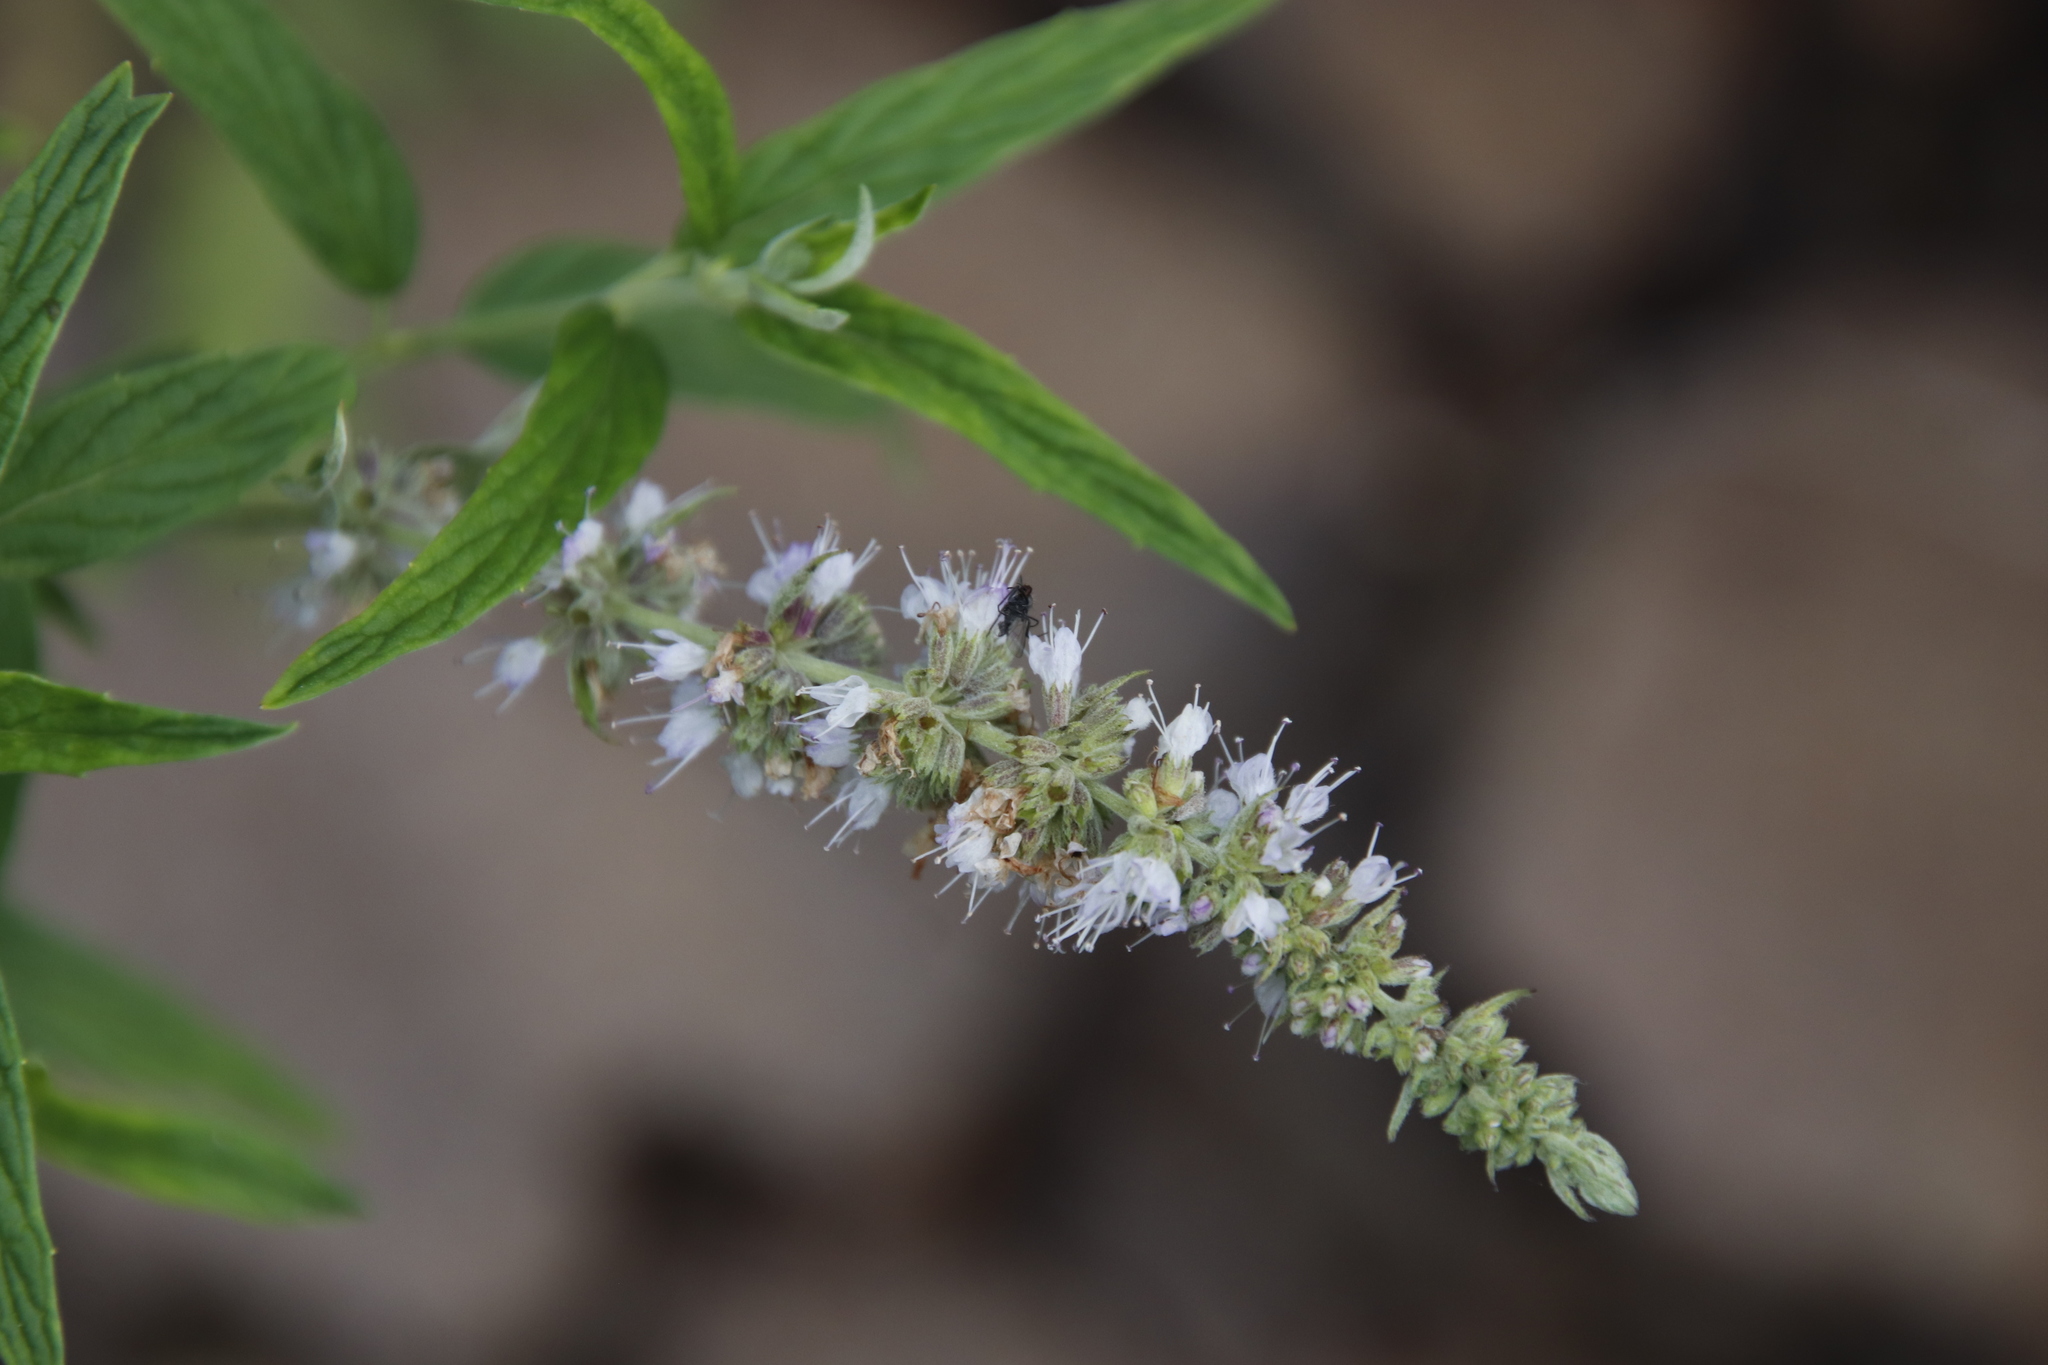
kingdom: Plantae
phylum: Tracheophyta
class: Magnoliopsida
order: Lamiales
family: Lamiaceae
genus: Mentha
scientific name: Mentha longifolia
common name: Horse mint
